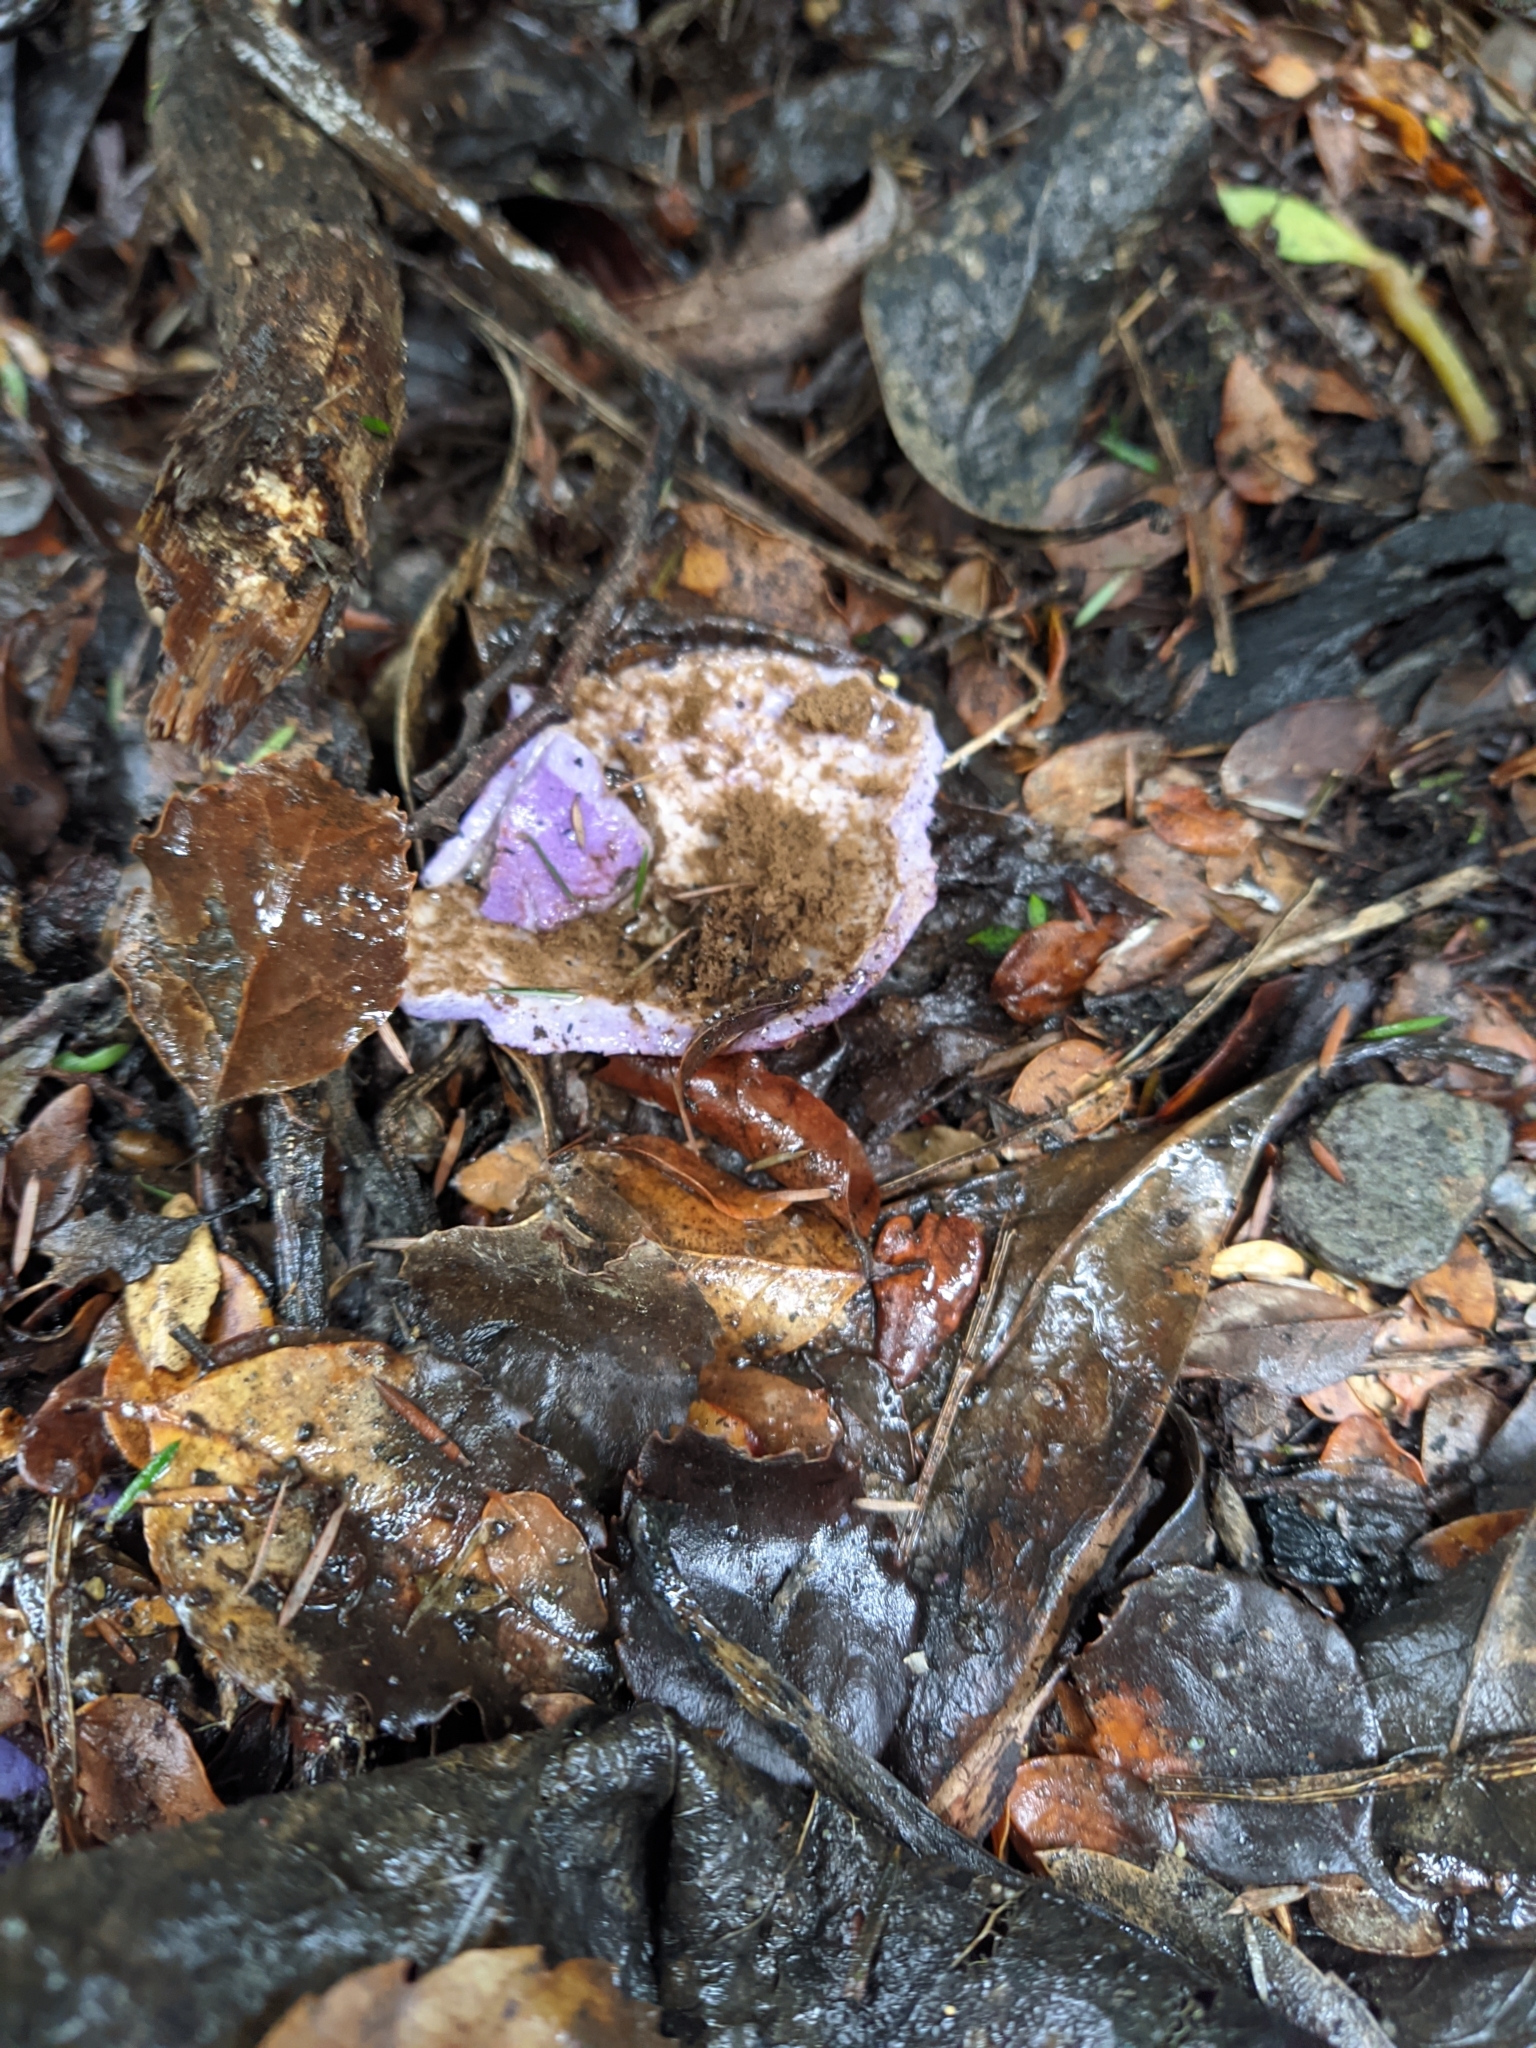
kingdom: Fungi
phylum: Basidiomycota
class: Agaricomycetes
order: Hysterangiales
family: Gallaceaceae
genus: Gallacea
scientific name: Gallacea scleroderma
